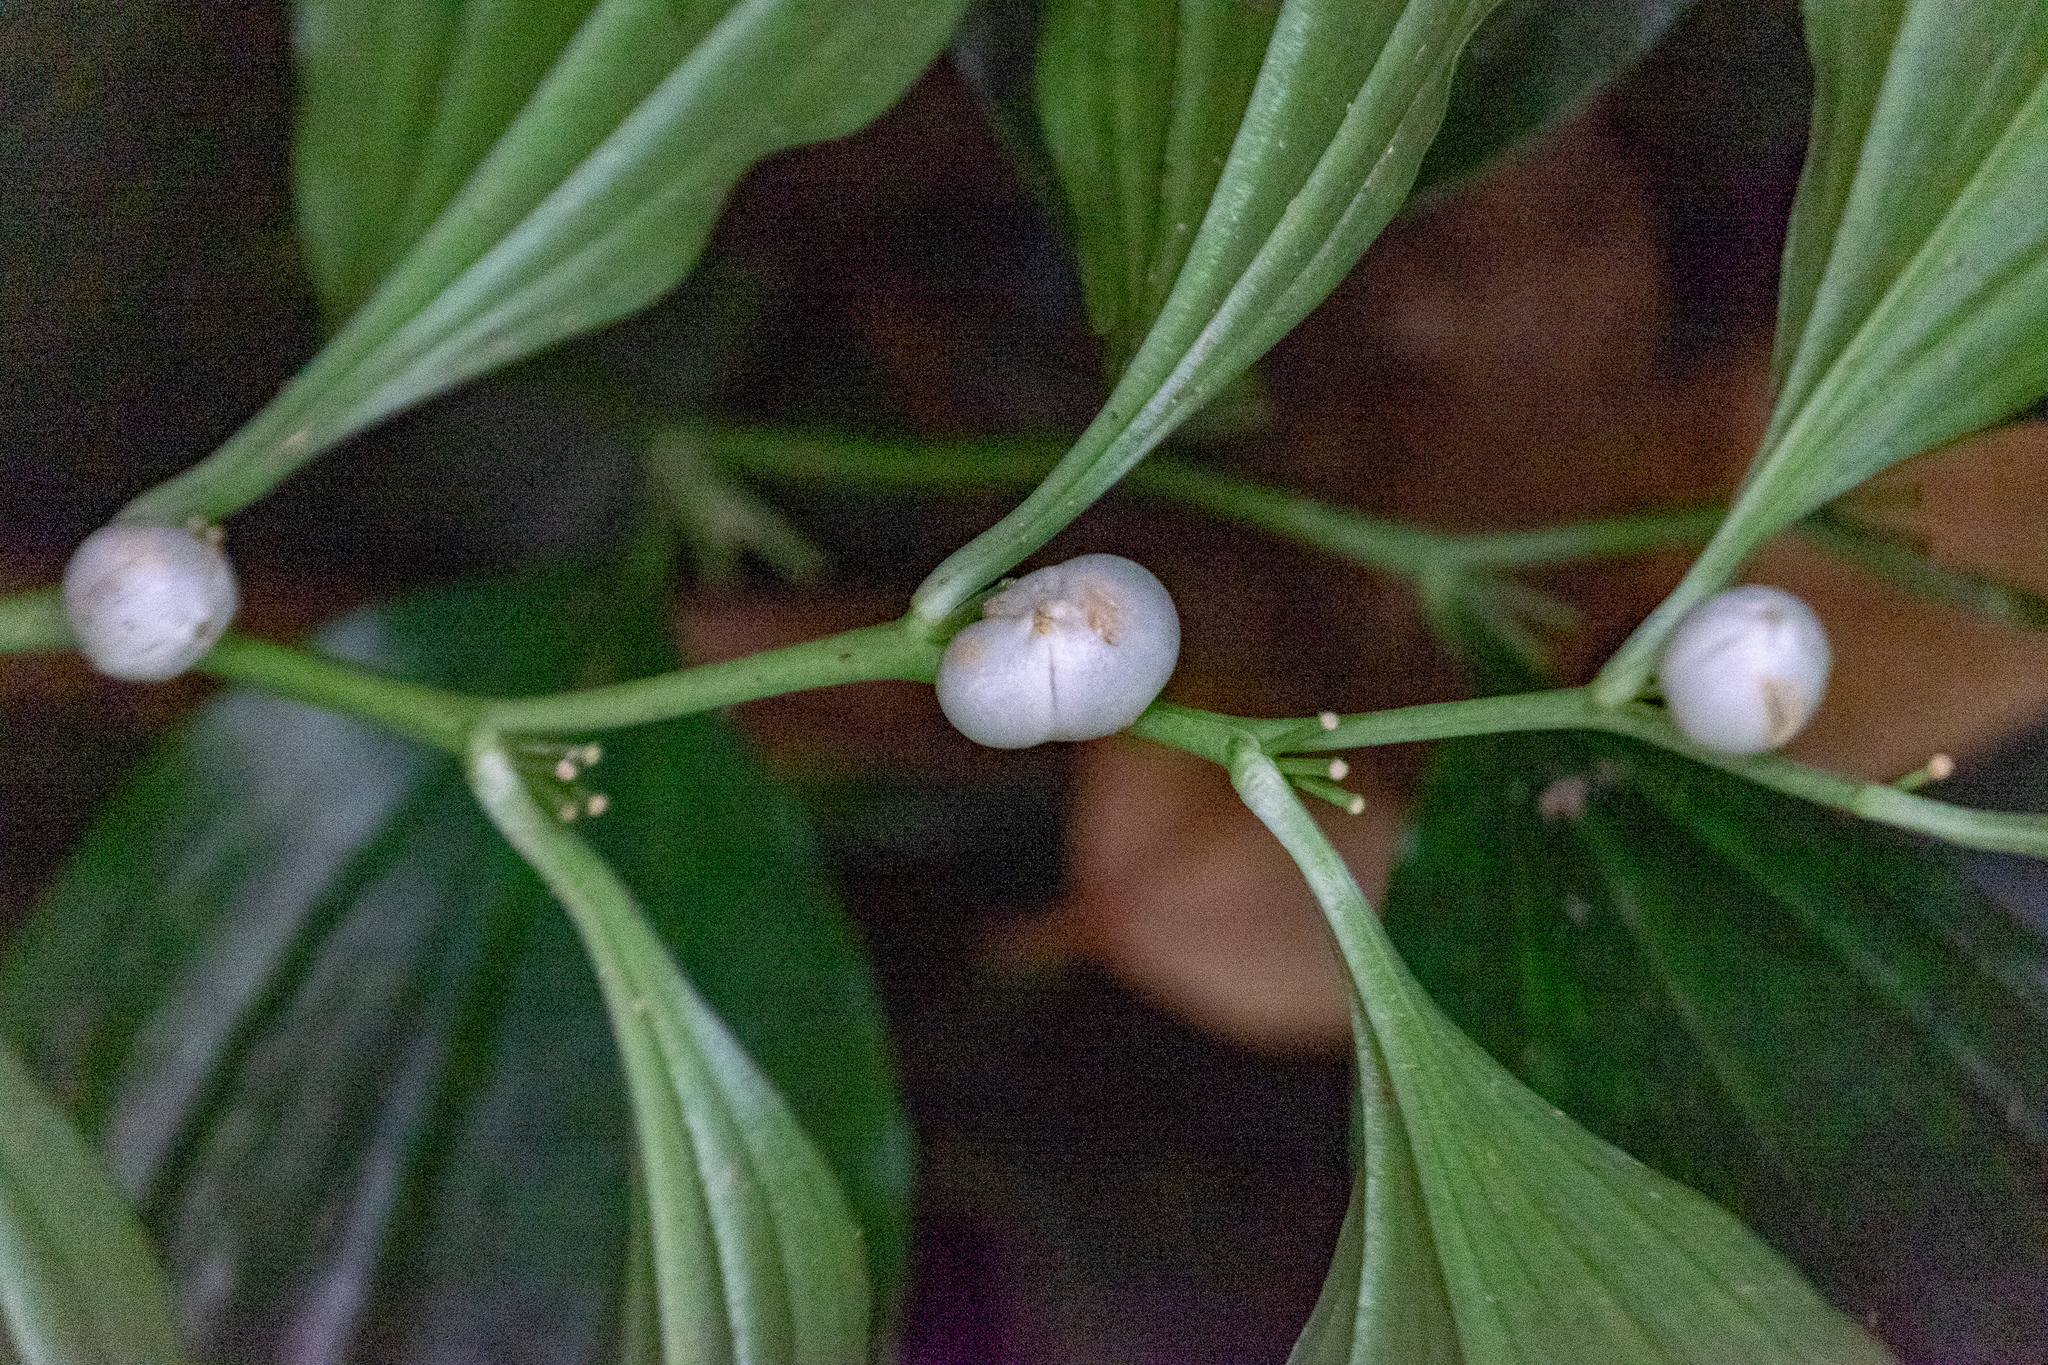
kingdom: Plantae
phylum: Tracheophyta
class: Liliopsida
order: Asparagales
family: Asparagaceae
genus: Disporopsis
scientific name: Disporopsis longifolia
